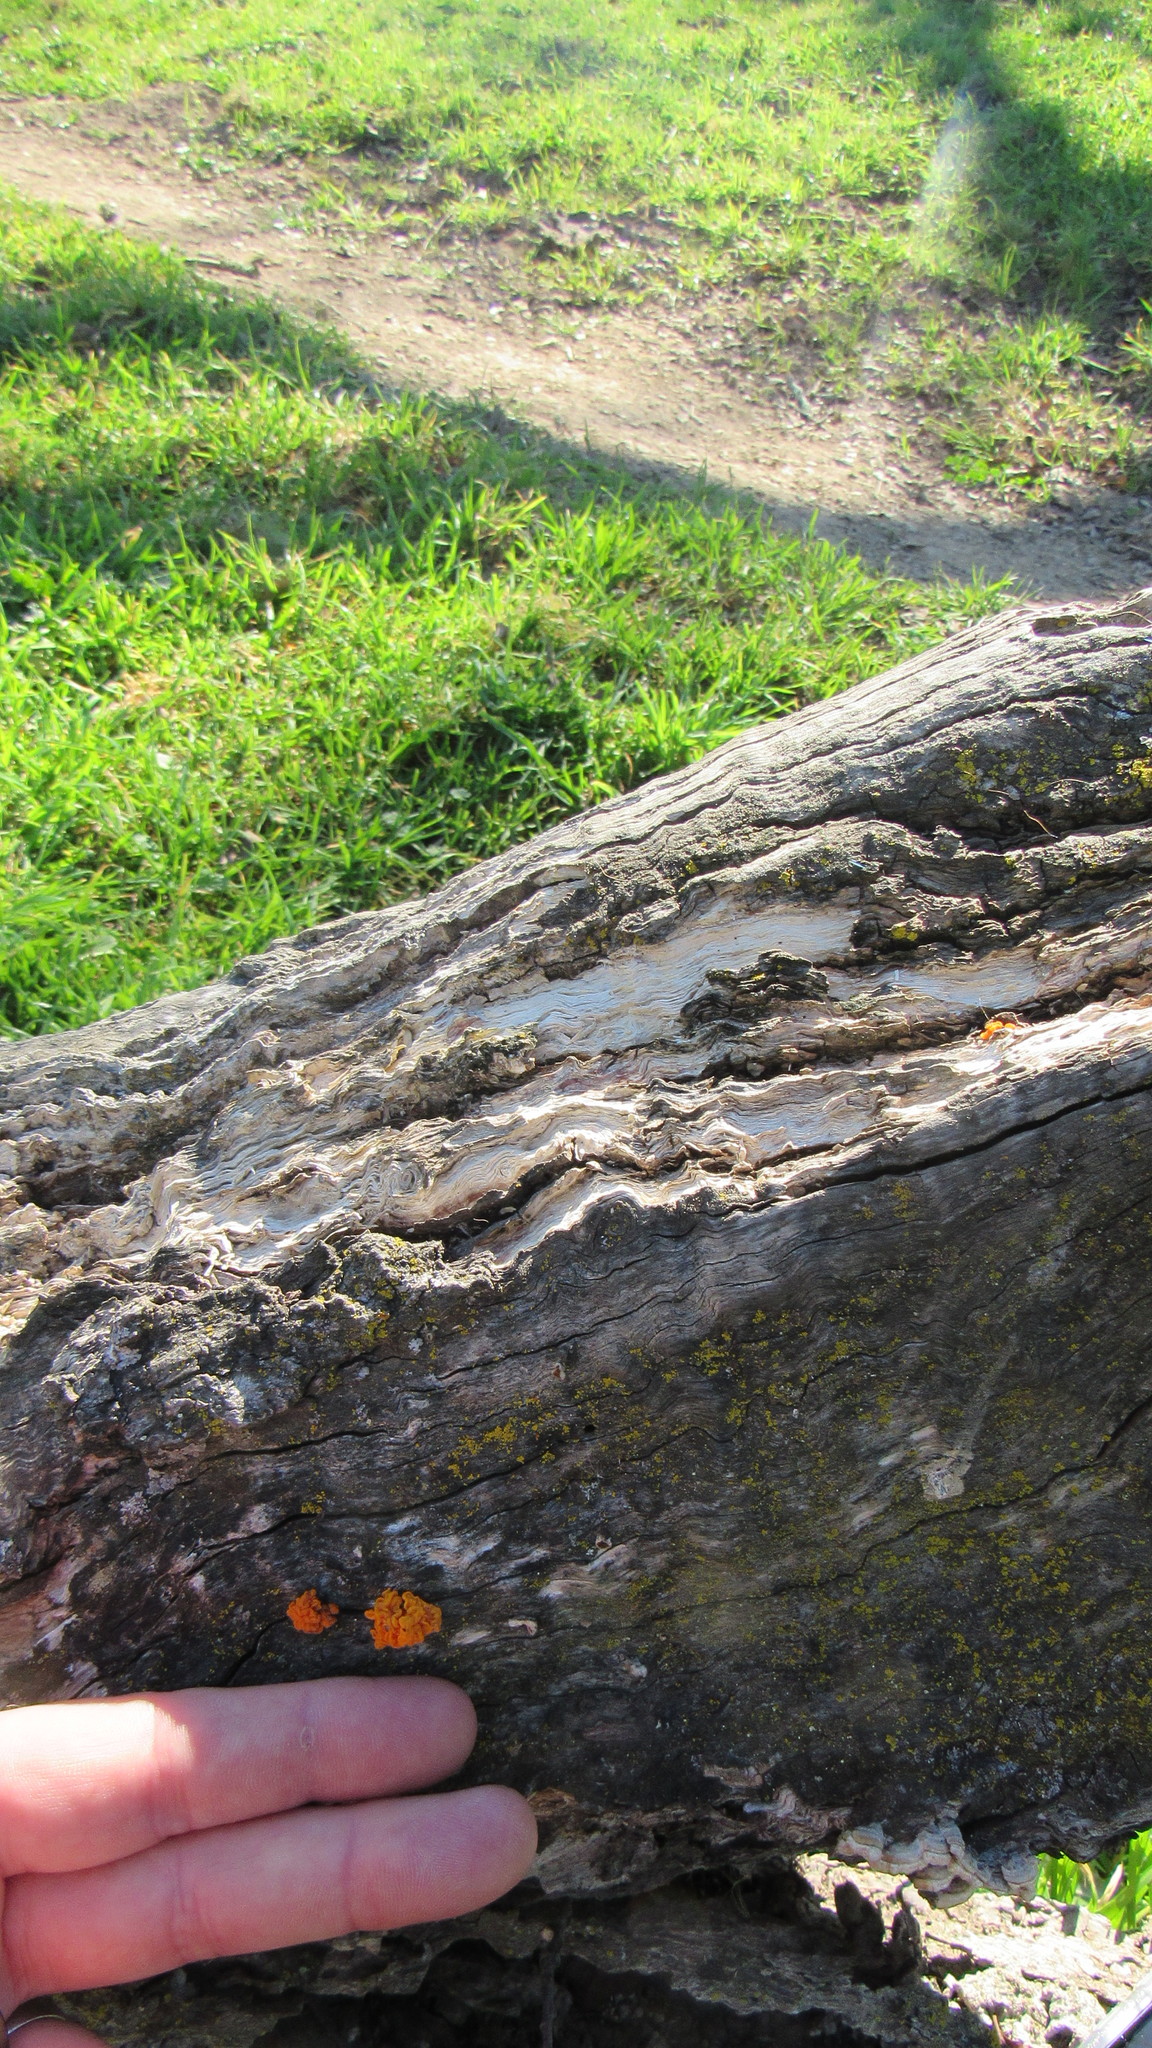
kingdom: Fungi
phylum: Basidiomycota
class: Tremellomycetes
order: Tremellales
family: Naemateliaceae
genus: Naematelia
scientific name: Naematelia aurantia
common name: Golden ear
